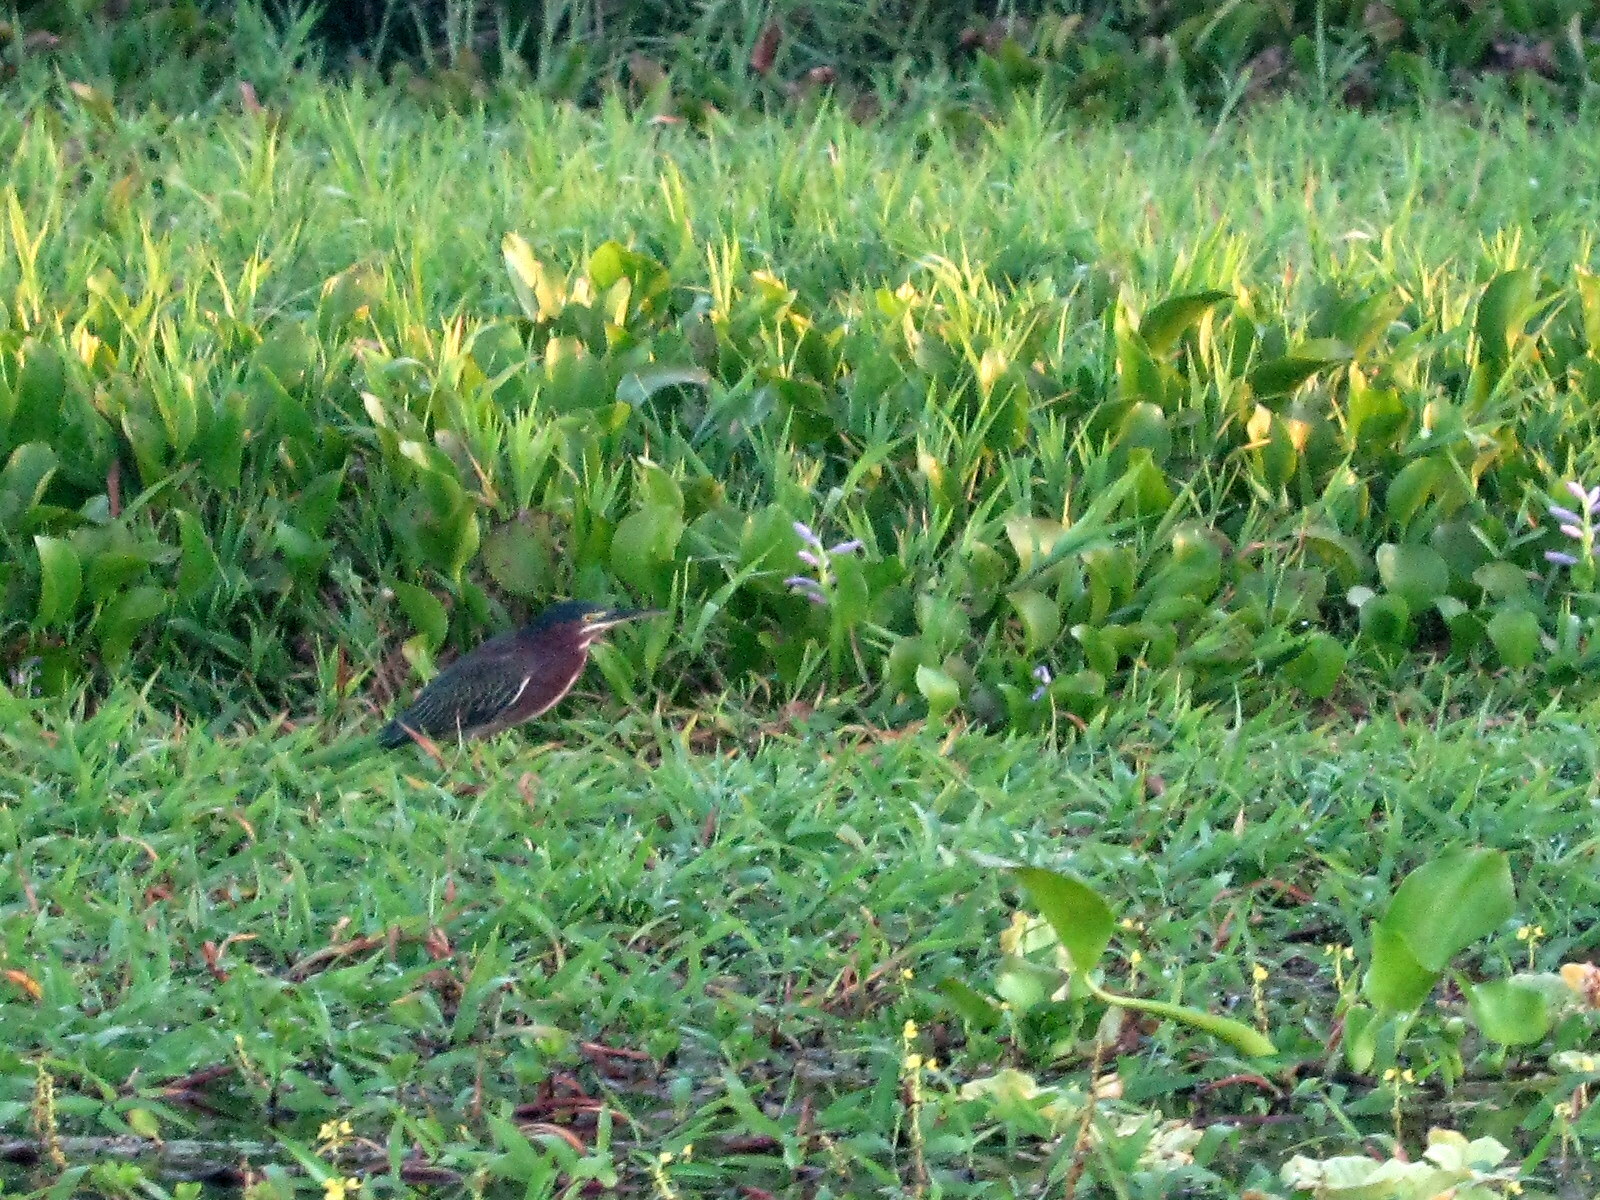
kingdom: Animalia
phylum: Chordata
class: Aves
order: Pelecaniformes
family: Ardeidae
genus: Butorides
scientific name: Butorides virescens
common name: Green heron
